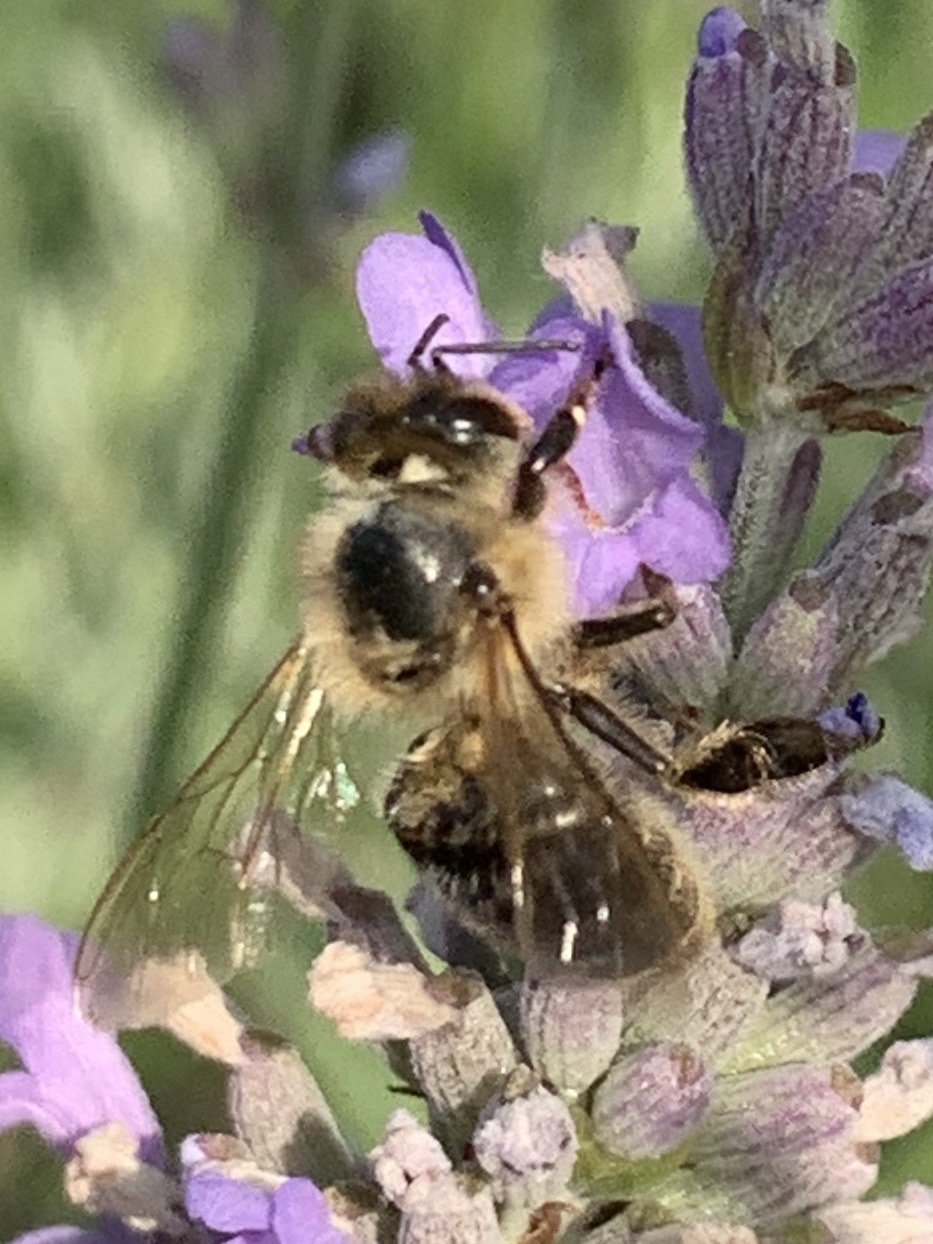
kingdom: Animalia
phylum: Arthropoda
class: Insecta
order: Hymenoptera
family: Apidae
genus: Apis
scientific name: Apis mellifera
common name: Honey bee
